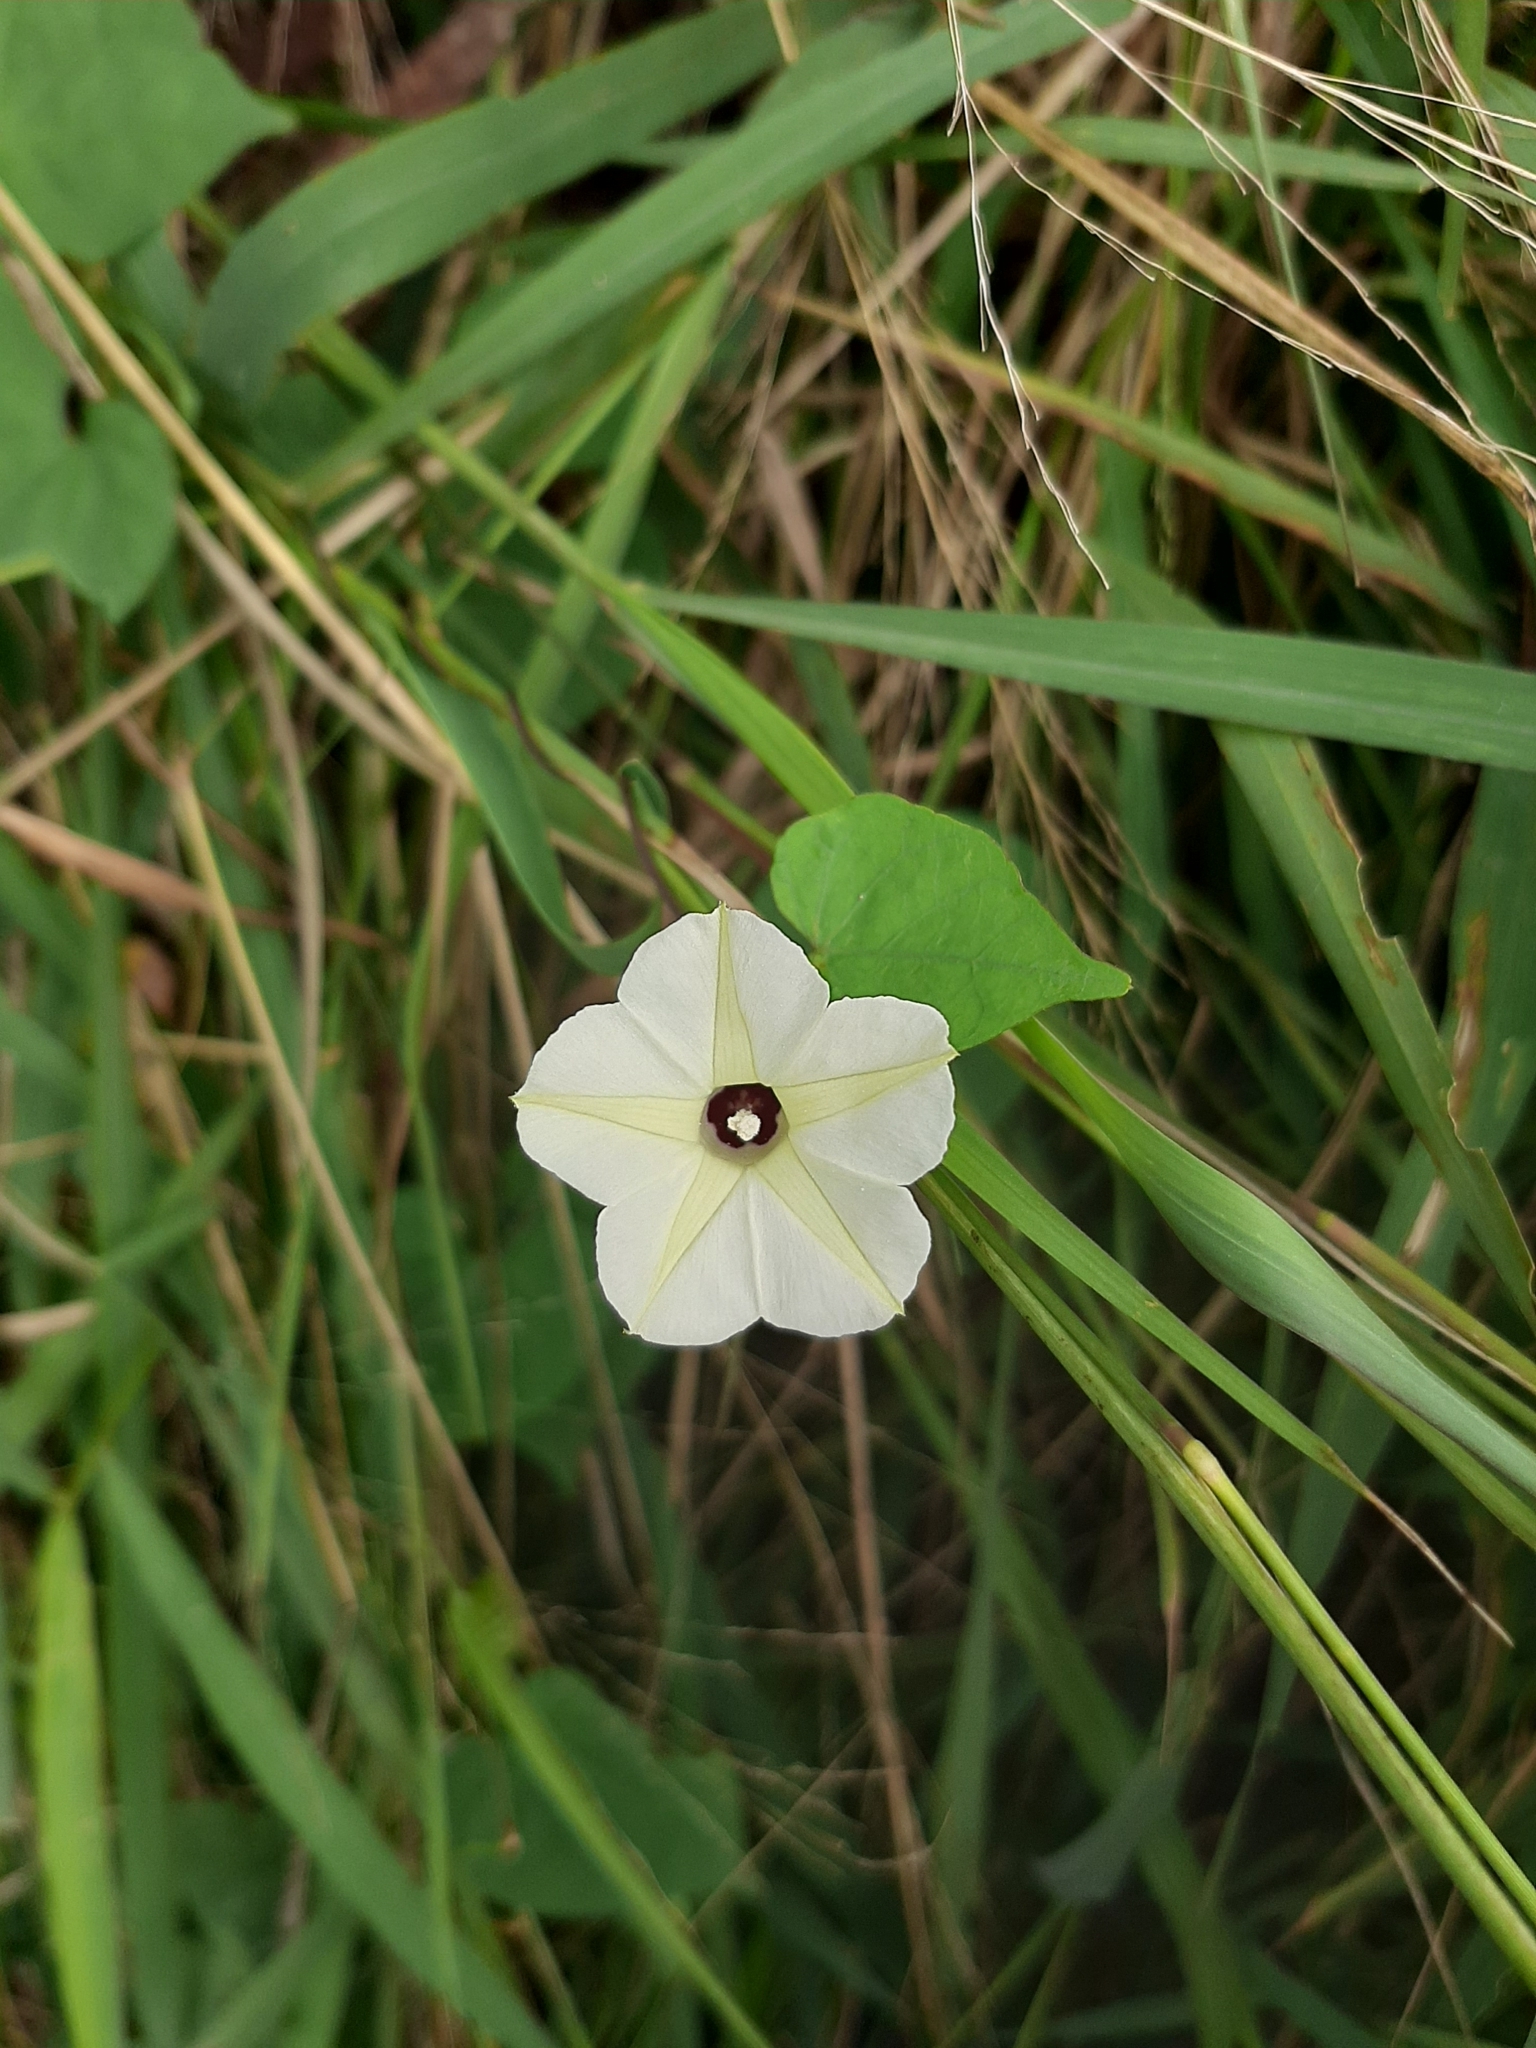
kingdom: Plantae
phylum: Tracheophyta
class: Magnoliopsida
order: Solanales
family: Convolvulaceae
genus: Ipomoea
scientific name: Ipomoea obscura
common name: Obscure morning-glory
